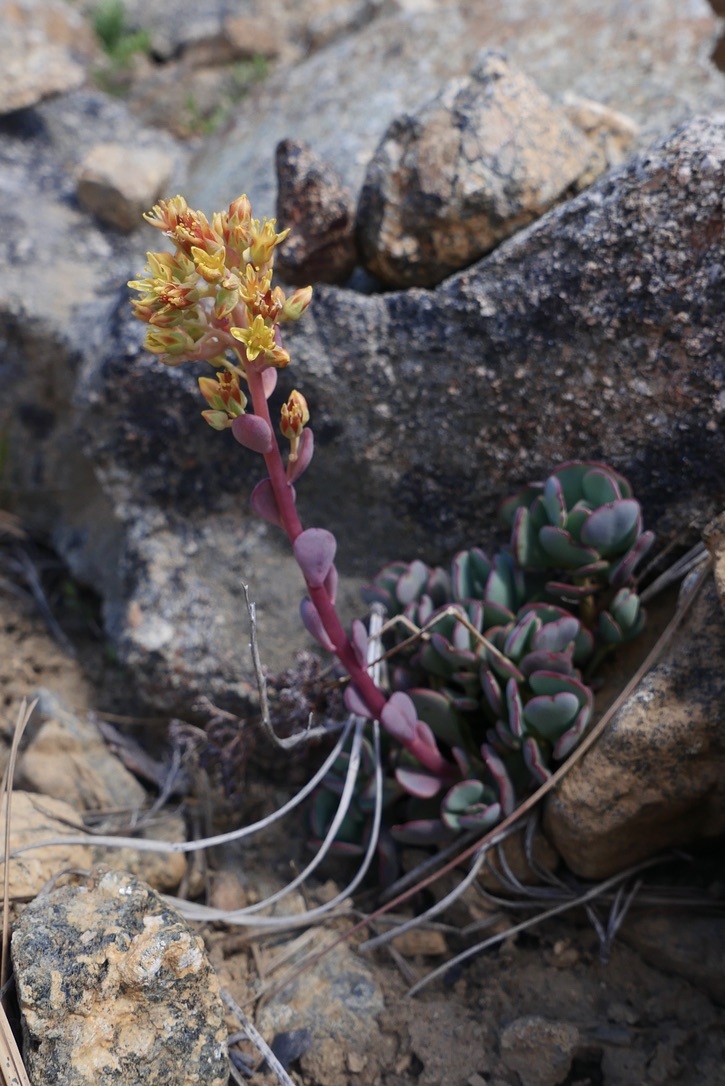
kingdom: Plantae
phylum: Tracheophyta
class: Magnoliopsida
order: Saxifragales
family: Crassulaceae
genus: Sedum
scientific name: Sedum obtusatum
